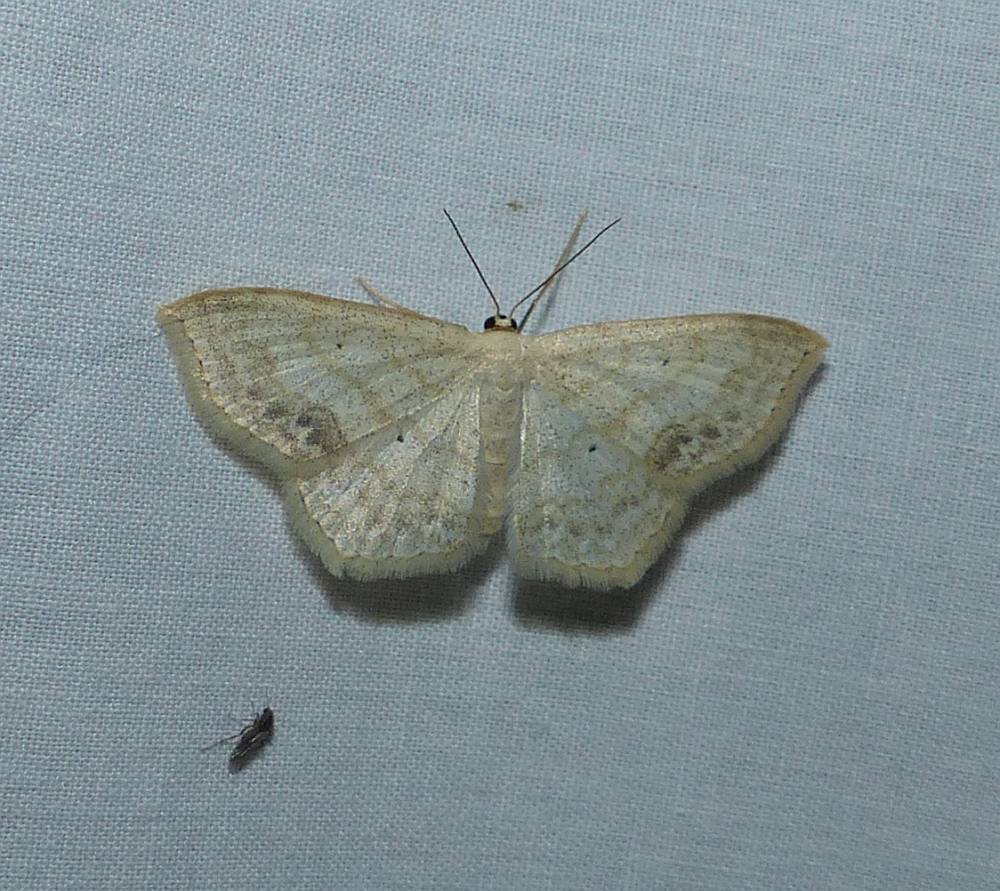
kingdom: Animalia
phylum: Arthropoda
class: Insecta
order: Lepidoptera
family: Geometridae
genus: Scopula
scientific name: Scopula limboundata
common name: Large lace border
